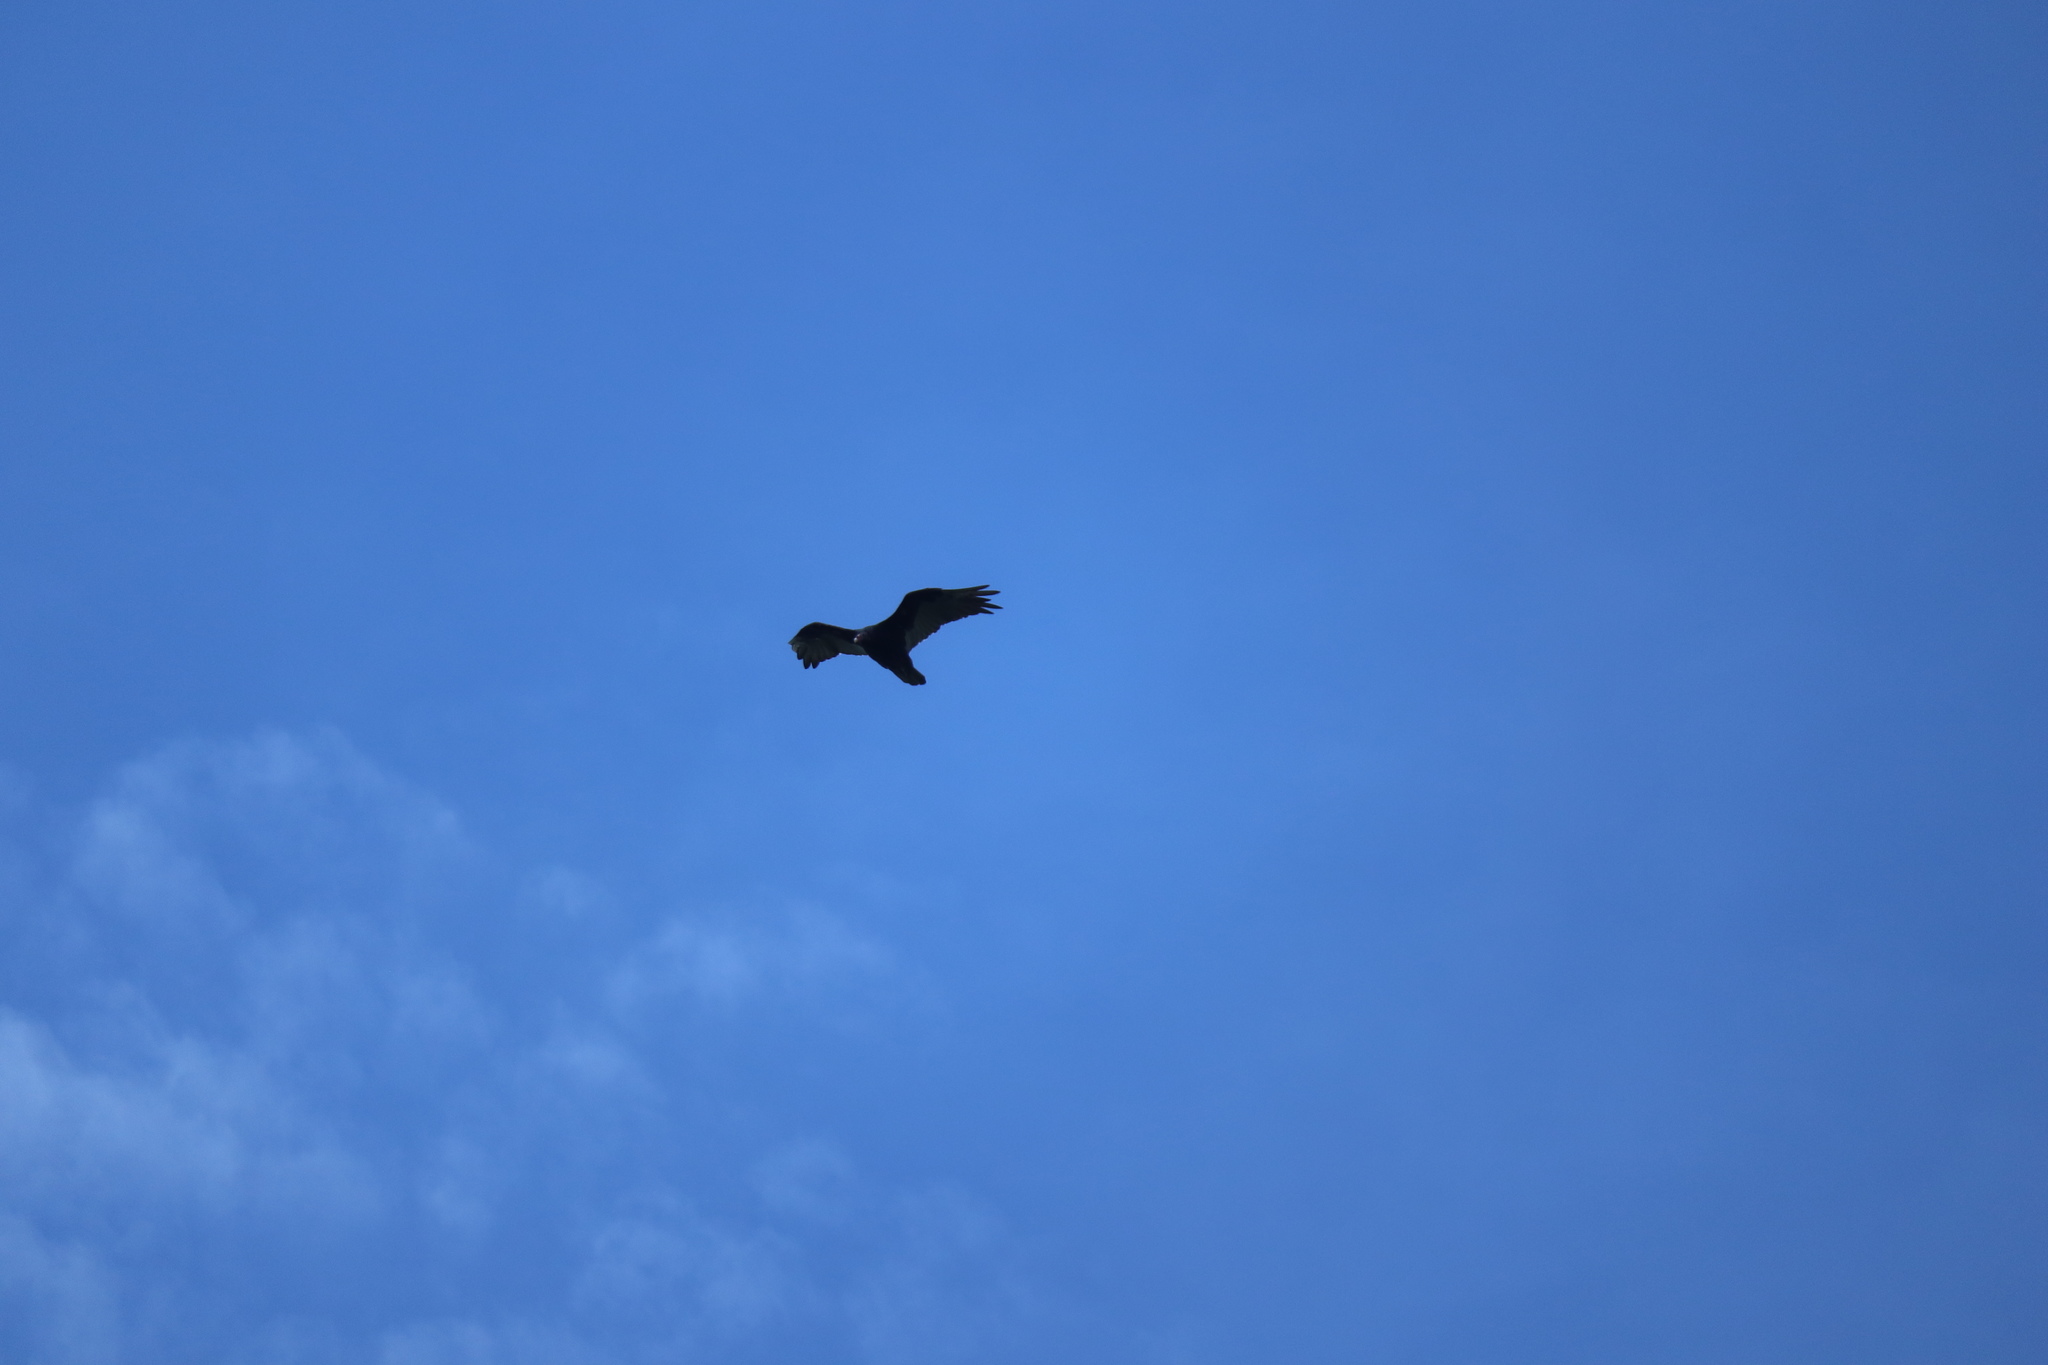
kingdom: Animalia
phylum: Chordata
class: Aves
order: Accipitriformes
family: Cathartidae
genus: Cathartes
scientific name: Cathartes aura
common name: Turkey vulture
